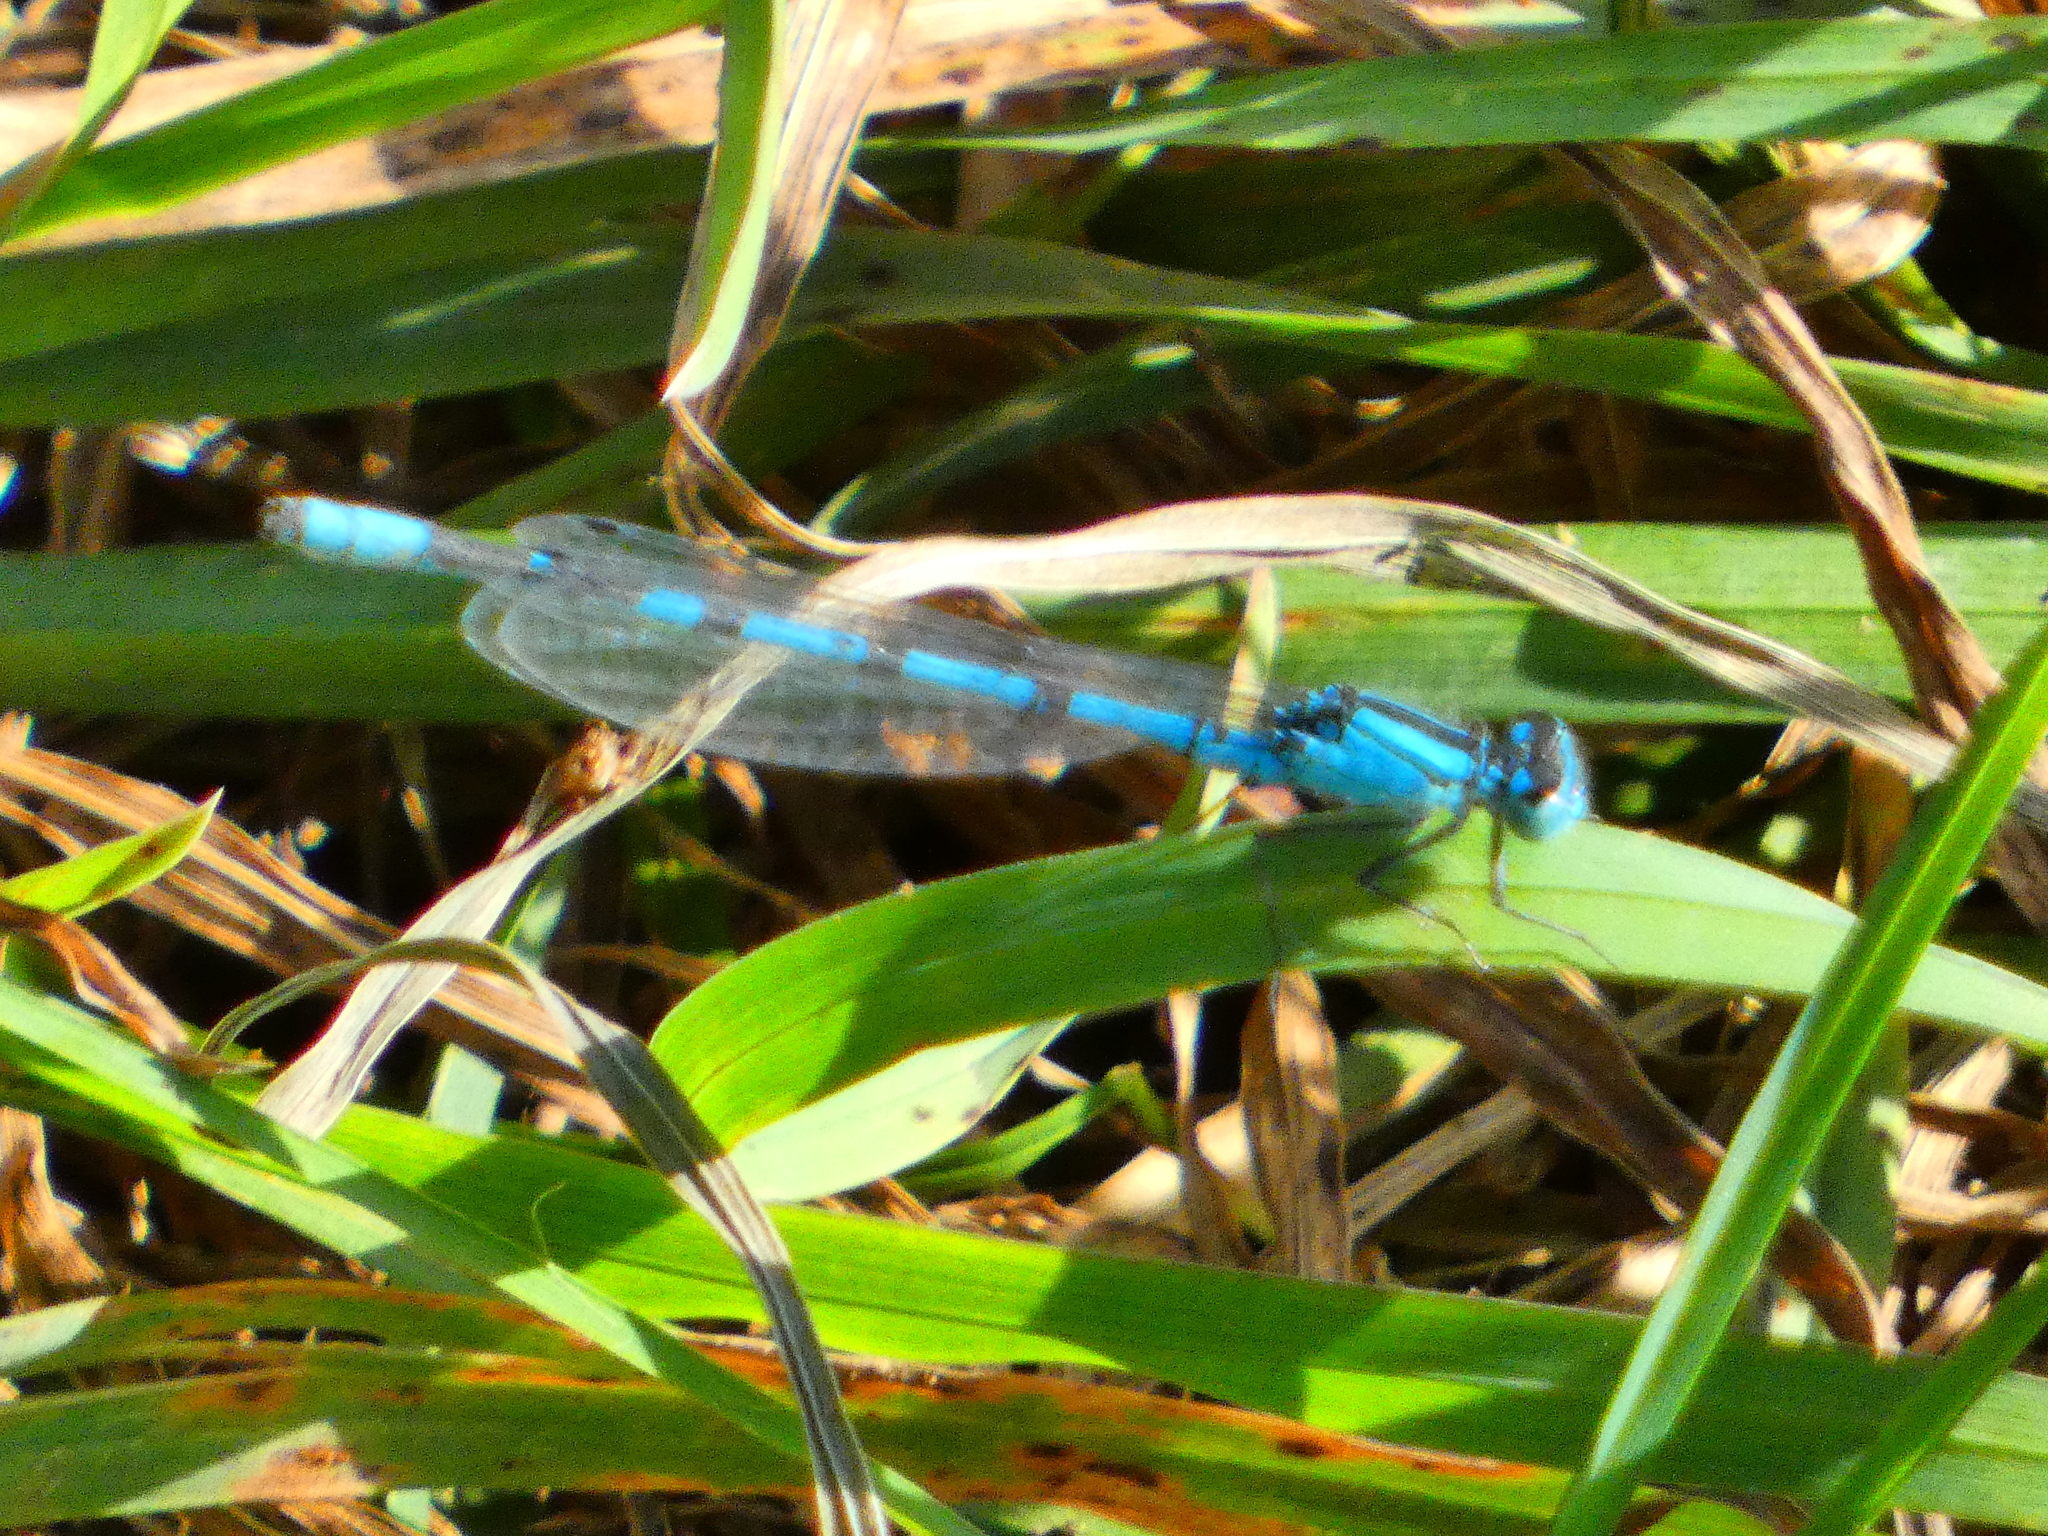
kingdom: Animalia
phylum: Arthropoda
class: Insecta
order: Odonata
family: Coenagrionidae
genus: Enallagma
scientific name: Enallagma cyathigerum
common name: Common blue damselfly
